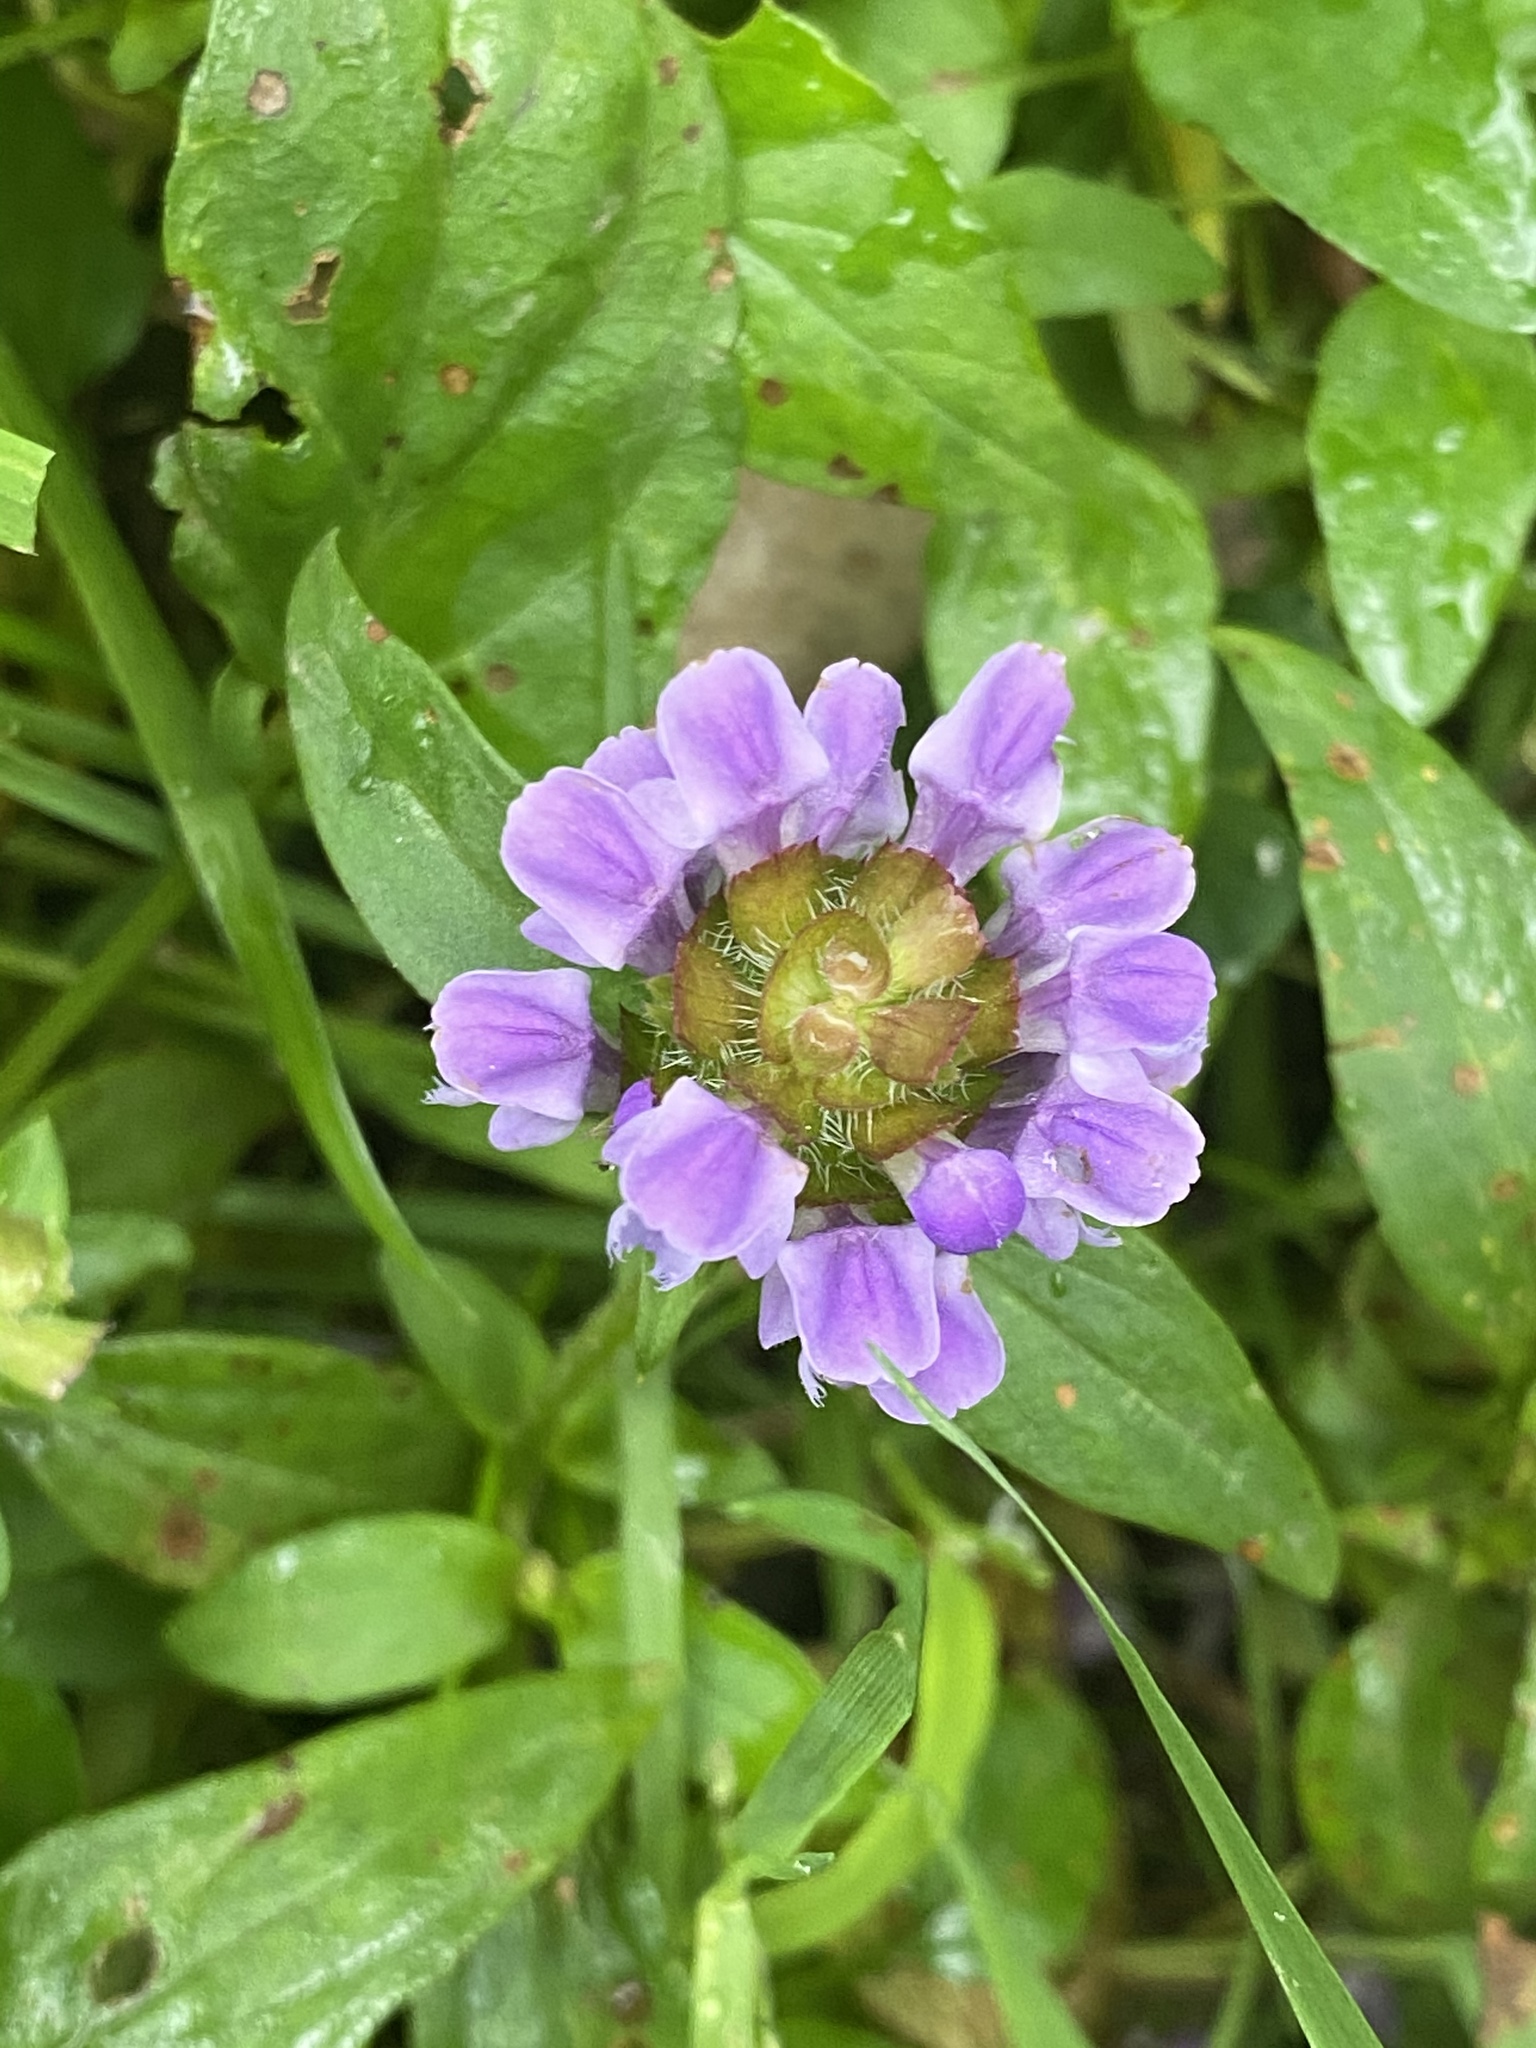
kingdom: Plantae
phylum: Tracheophyta
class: Magnoliopsida
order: Lamiales
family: Lamiaceae
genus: Prunella
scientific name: Prunella vulgaris
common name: Heal-all
